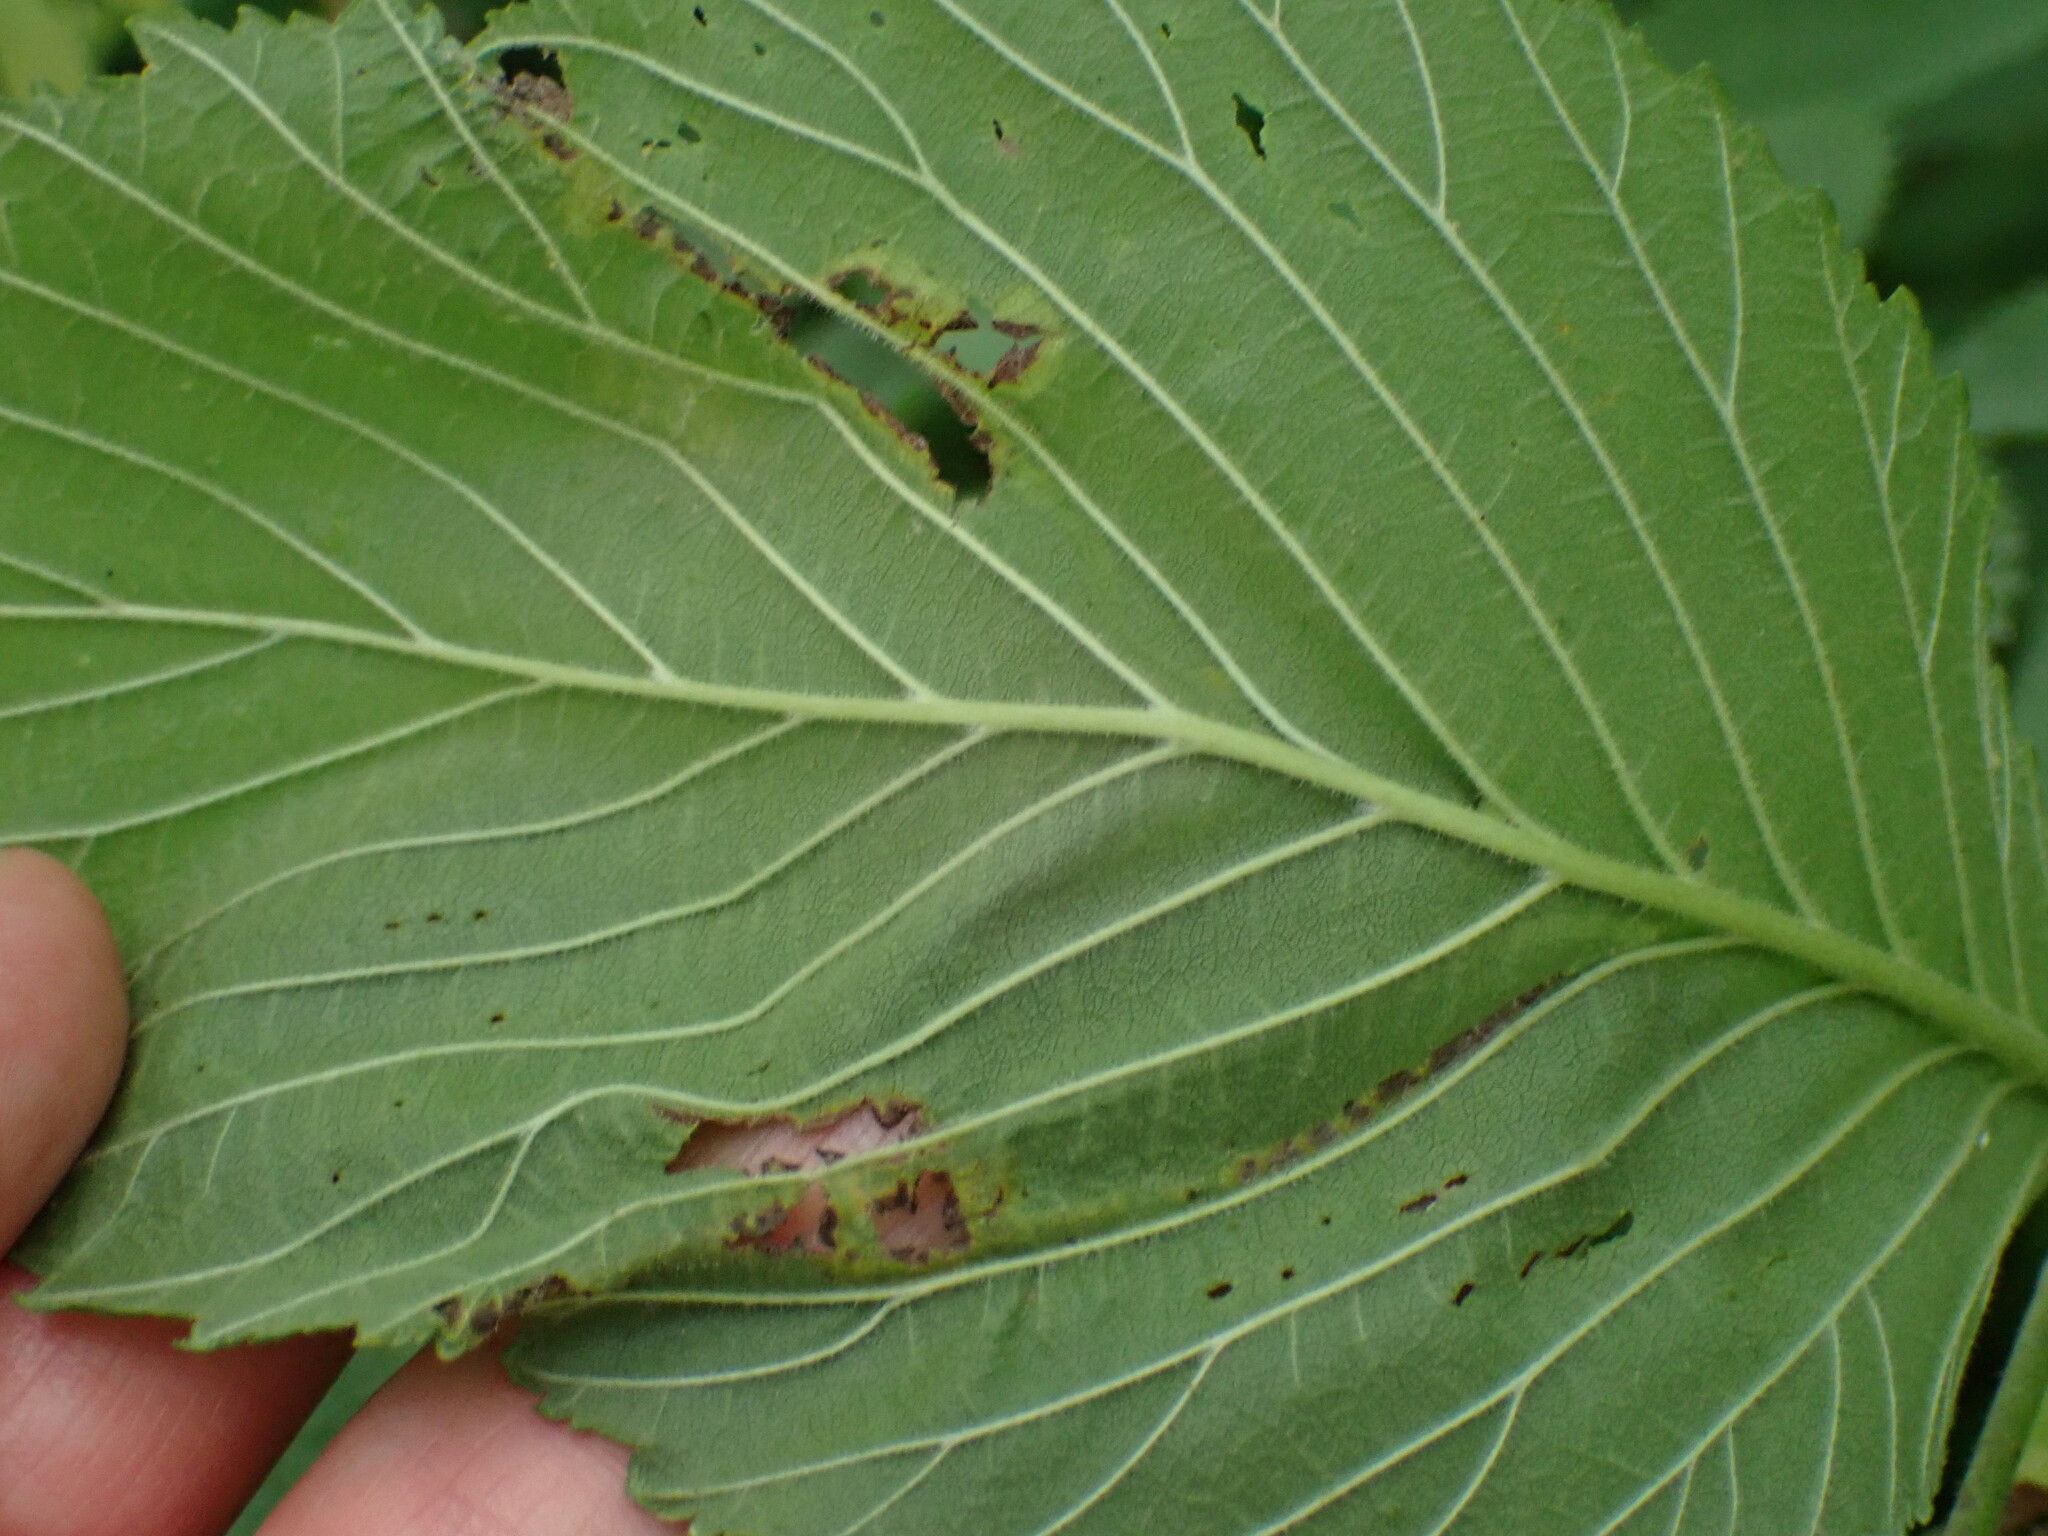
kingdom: Animalia
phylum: Arthropoda
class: Insecta
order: Diptera
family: Agromyzidae
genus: Agromyza
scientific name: Agromyza aristata
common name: Elm agromyzid leafminer
